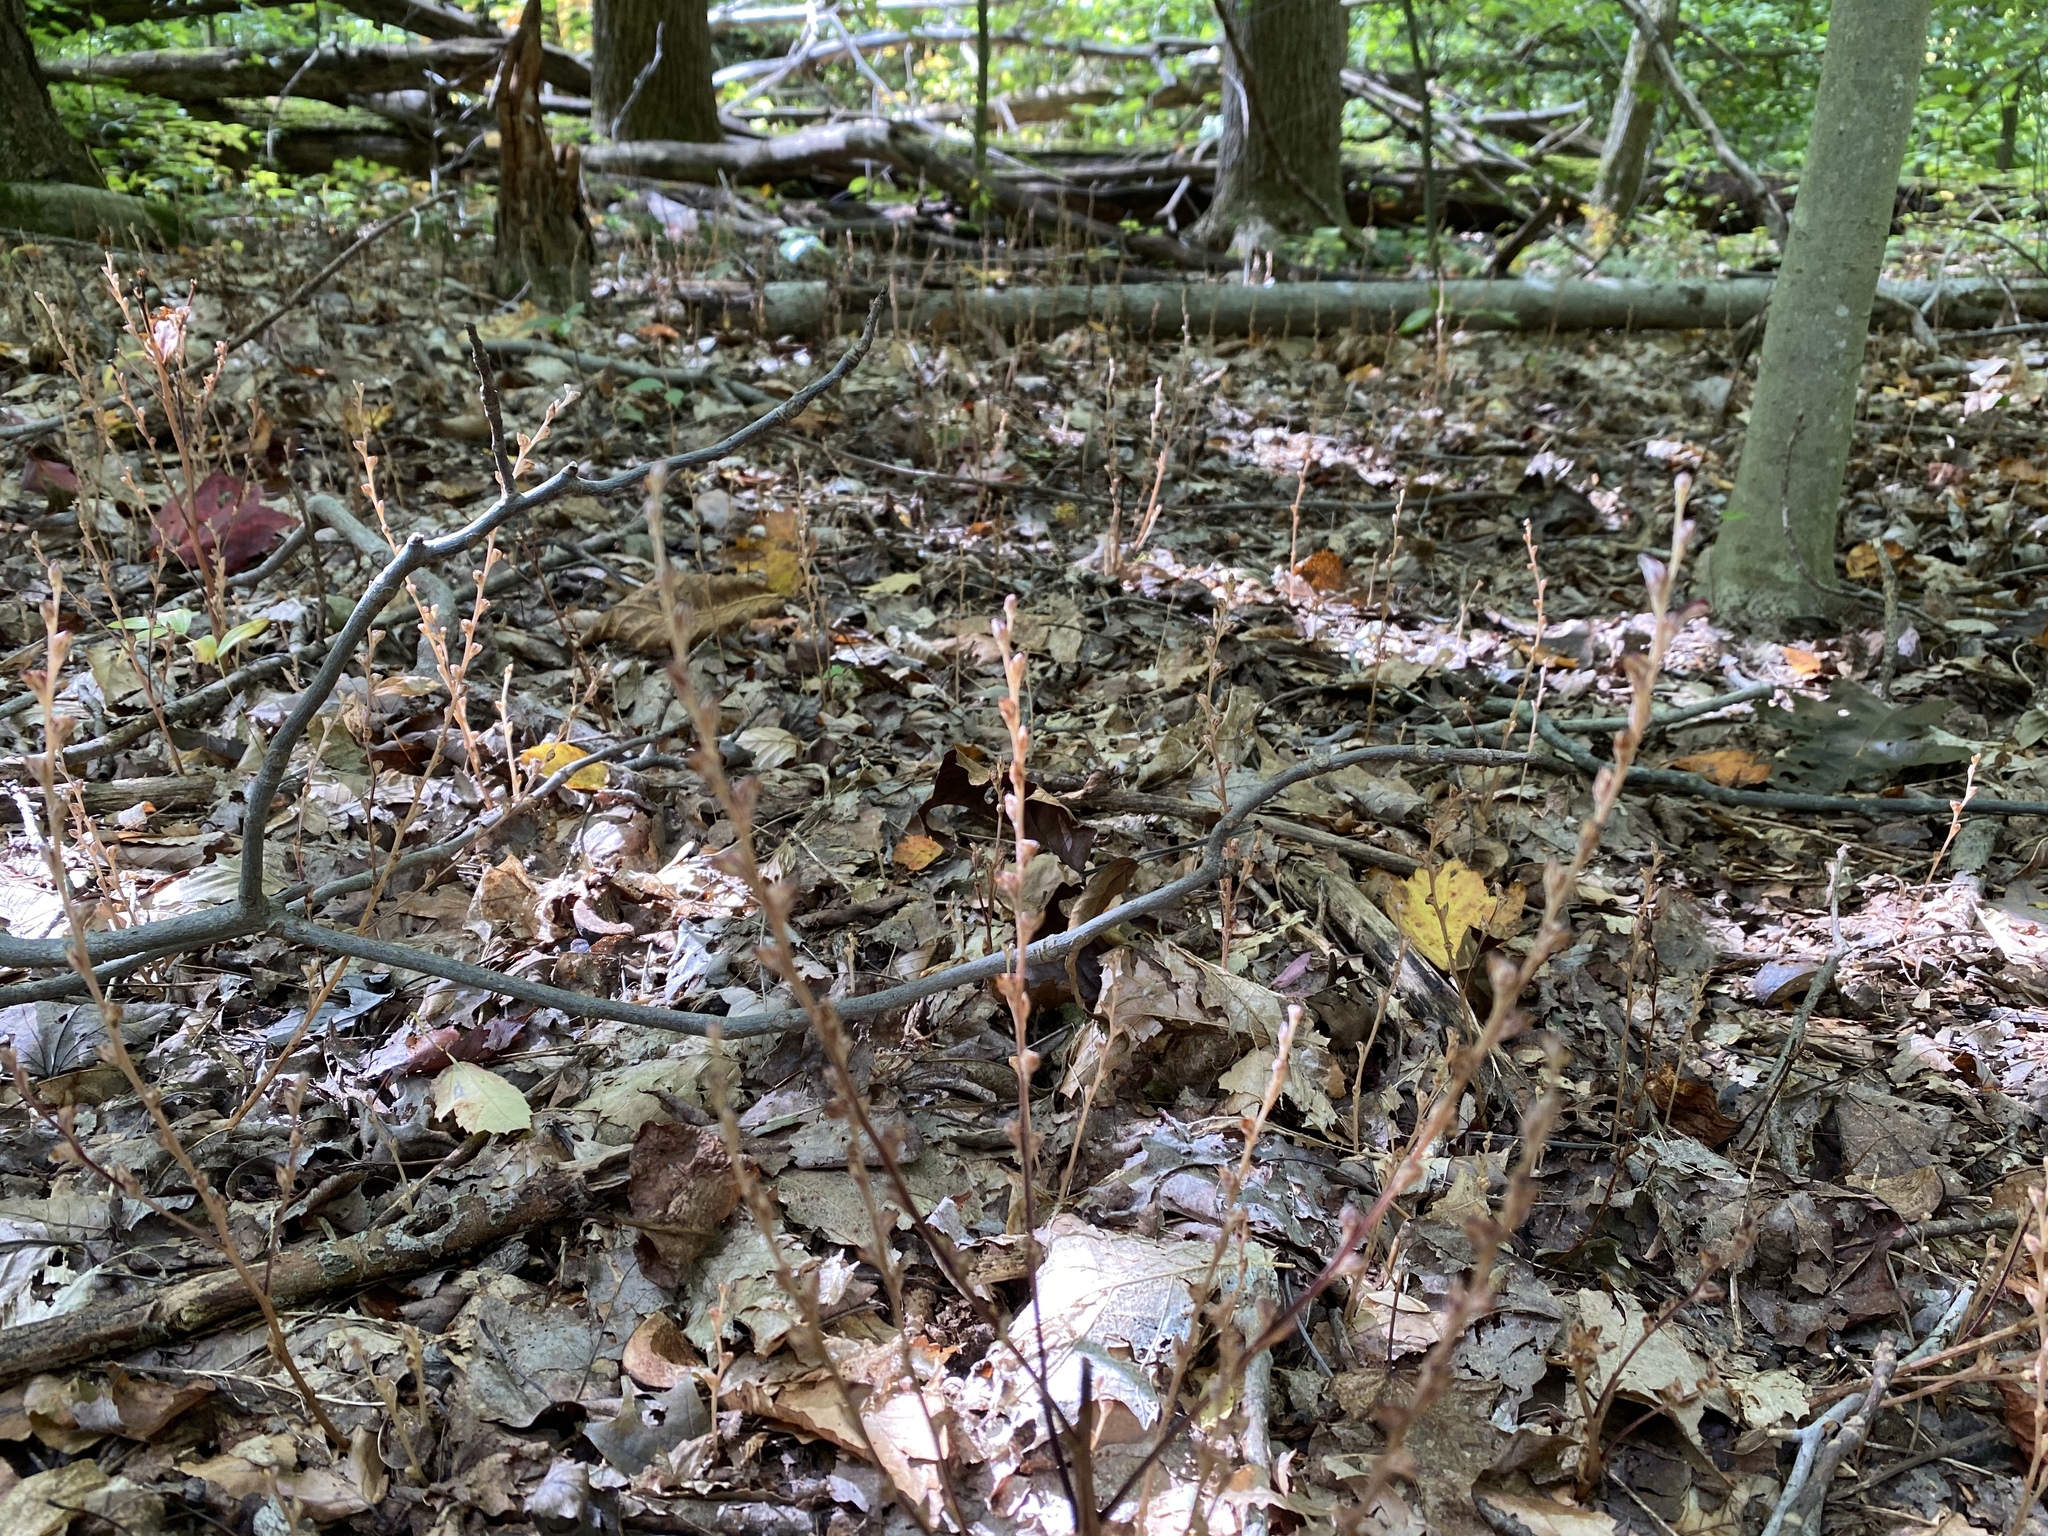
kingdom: Plantae
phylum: Tracheophyta
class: Magnoliopsida
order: Lamiales
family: Orobanchaceae
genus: Epifagus
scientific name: Epifagus virginiana
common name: Beechdrops
